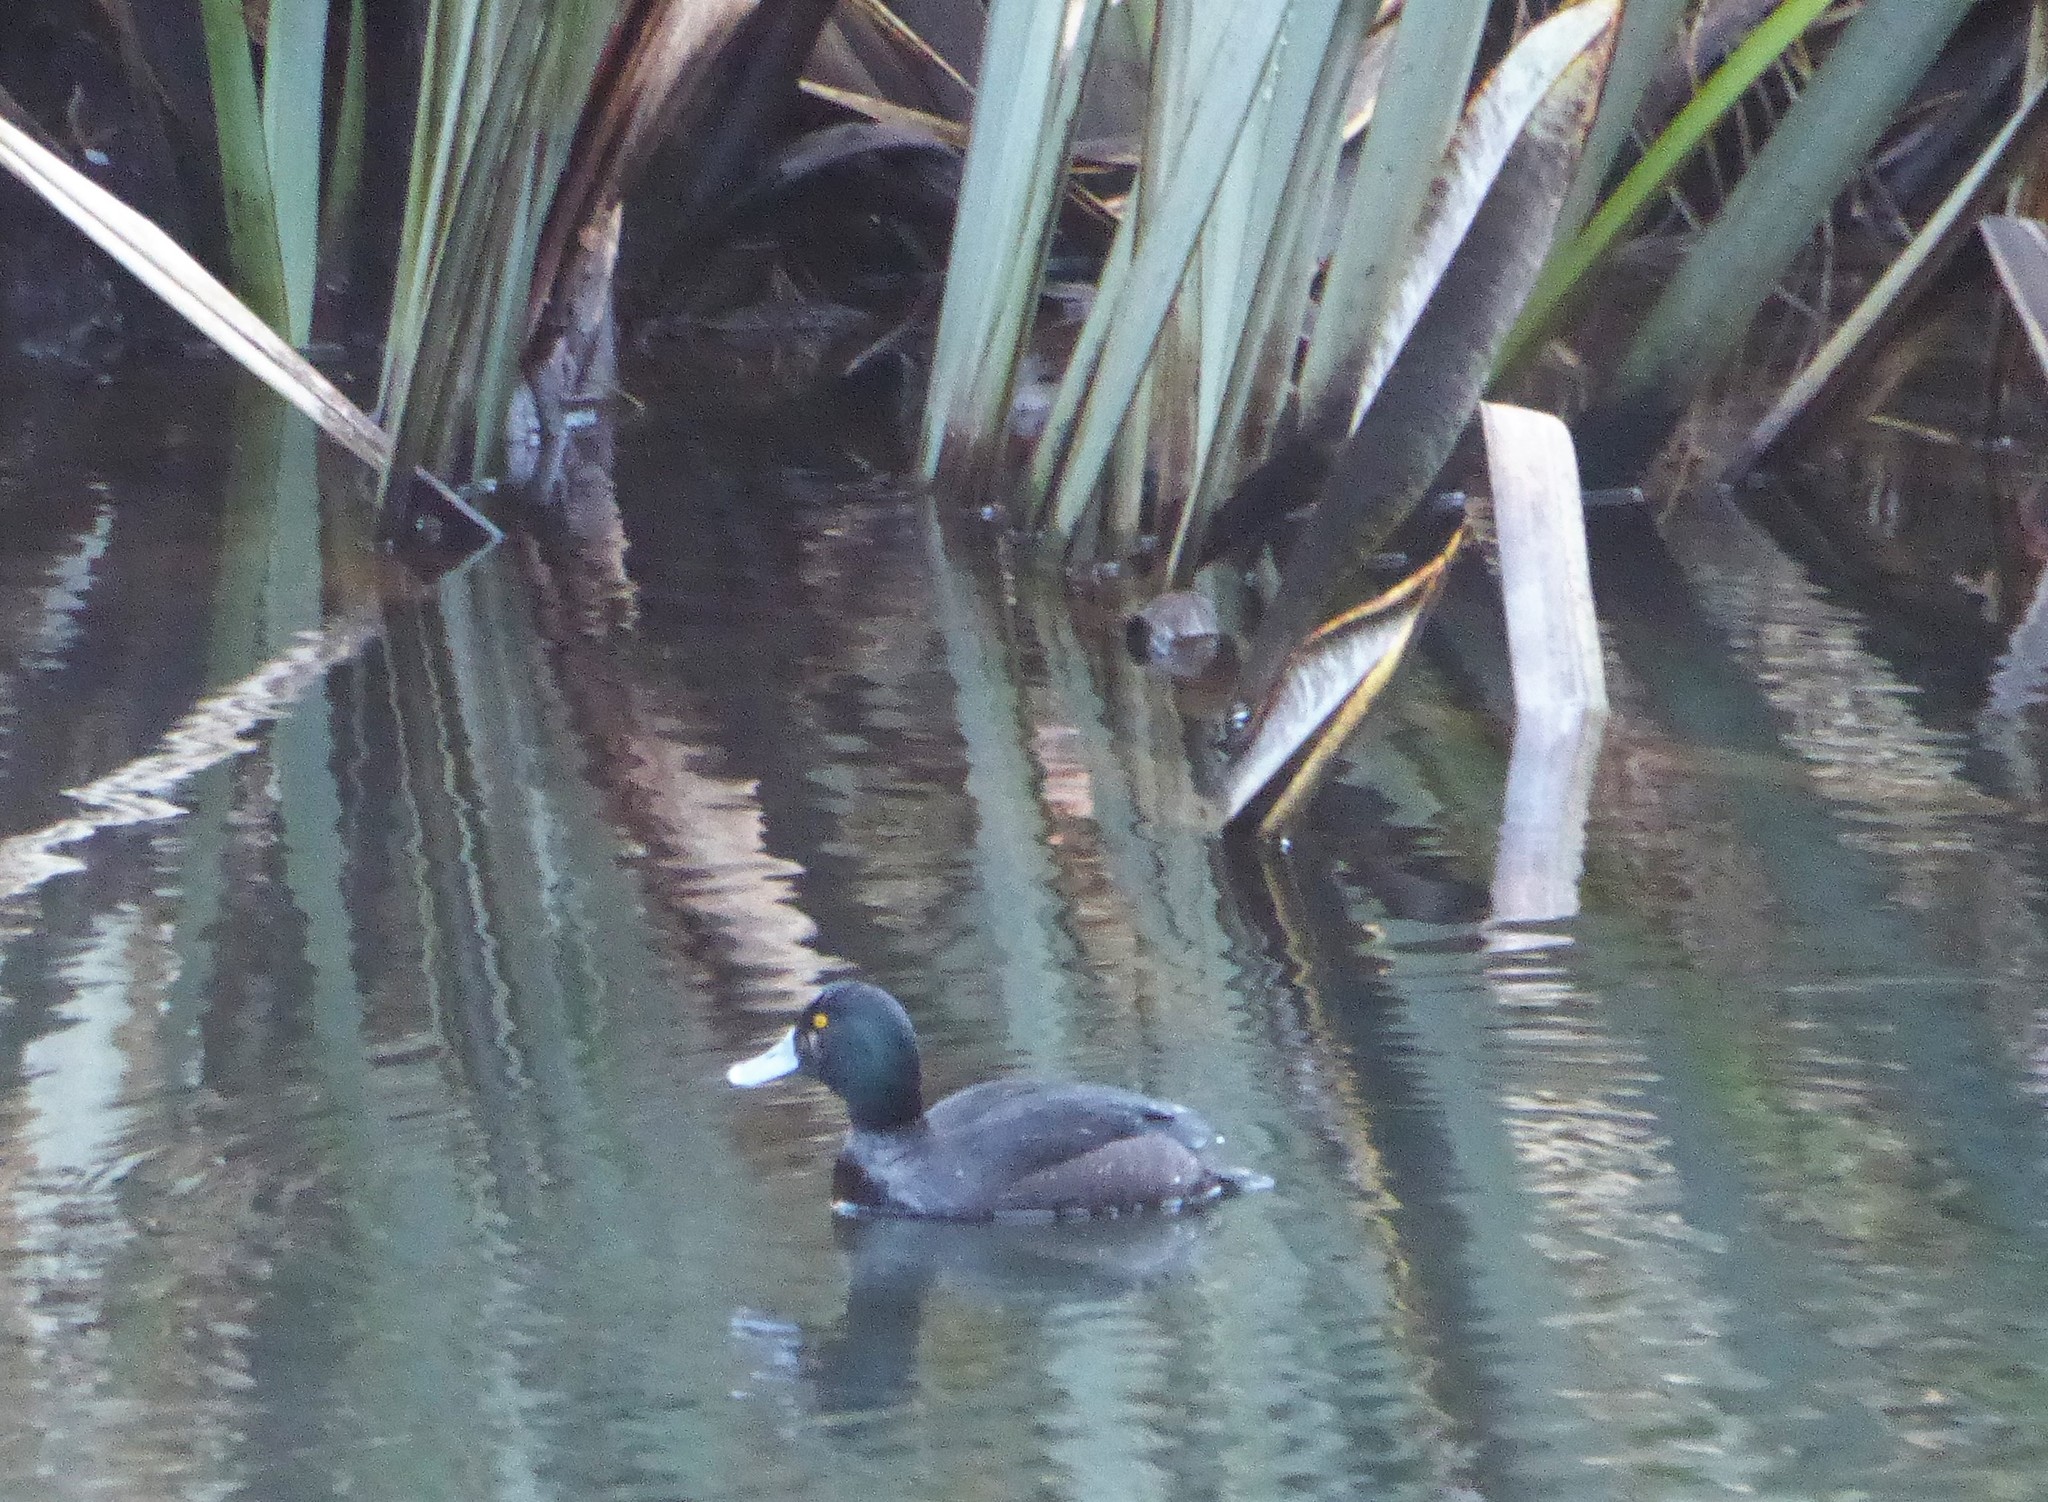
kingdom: Animalia
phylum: Chordata
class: Aves
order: Anseriformes
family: Anatidae
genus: Aythya
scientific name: Aythya novaeseelandiae
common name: New zealand scaup
